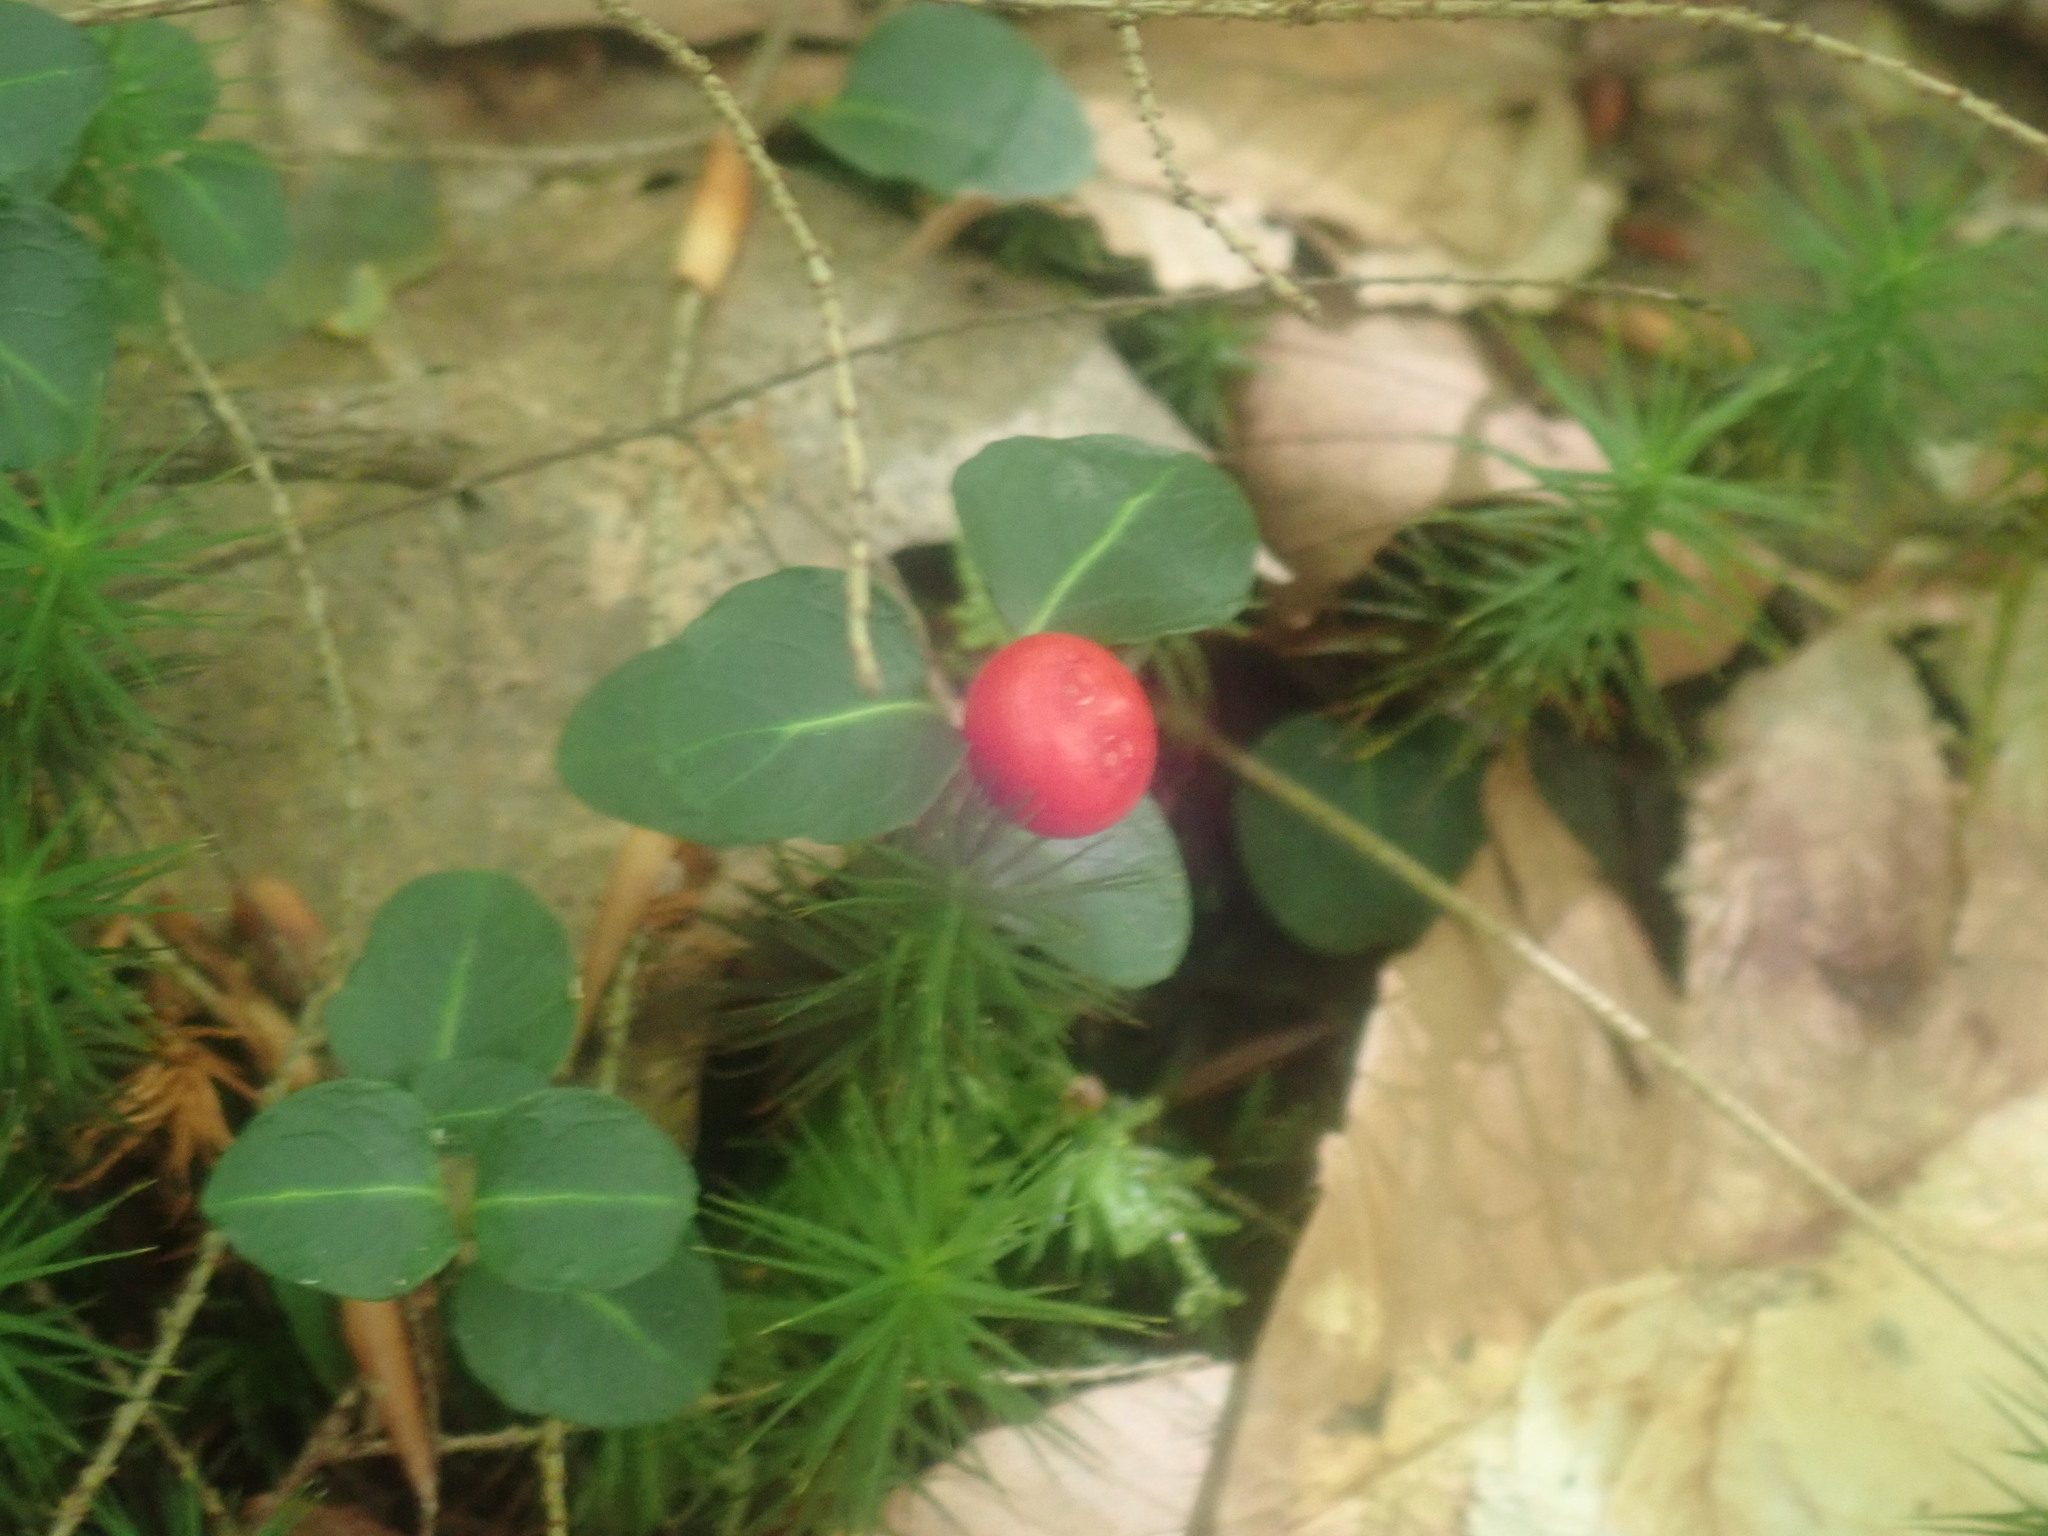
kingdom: Plantae
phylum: Tracheophyta
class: Magnoliopsida
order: Gentianales
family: Rubiaceae
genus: Mitchella
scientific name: Mitchella repens
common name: Partridge-berry
